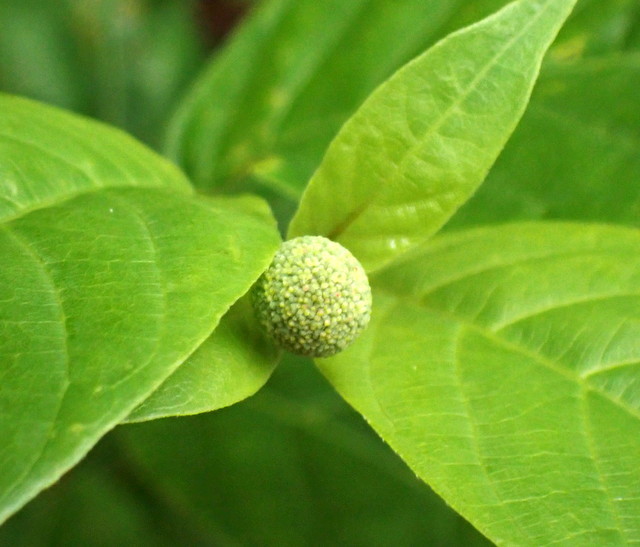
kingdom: Plantae
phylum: Tracheophyta
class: Magnoliopsida
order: Gentianales
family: Rubiaceae
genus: Cephalanthus
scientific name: Cephalanthus occidentalis
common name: Button-willow
